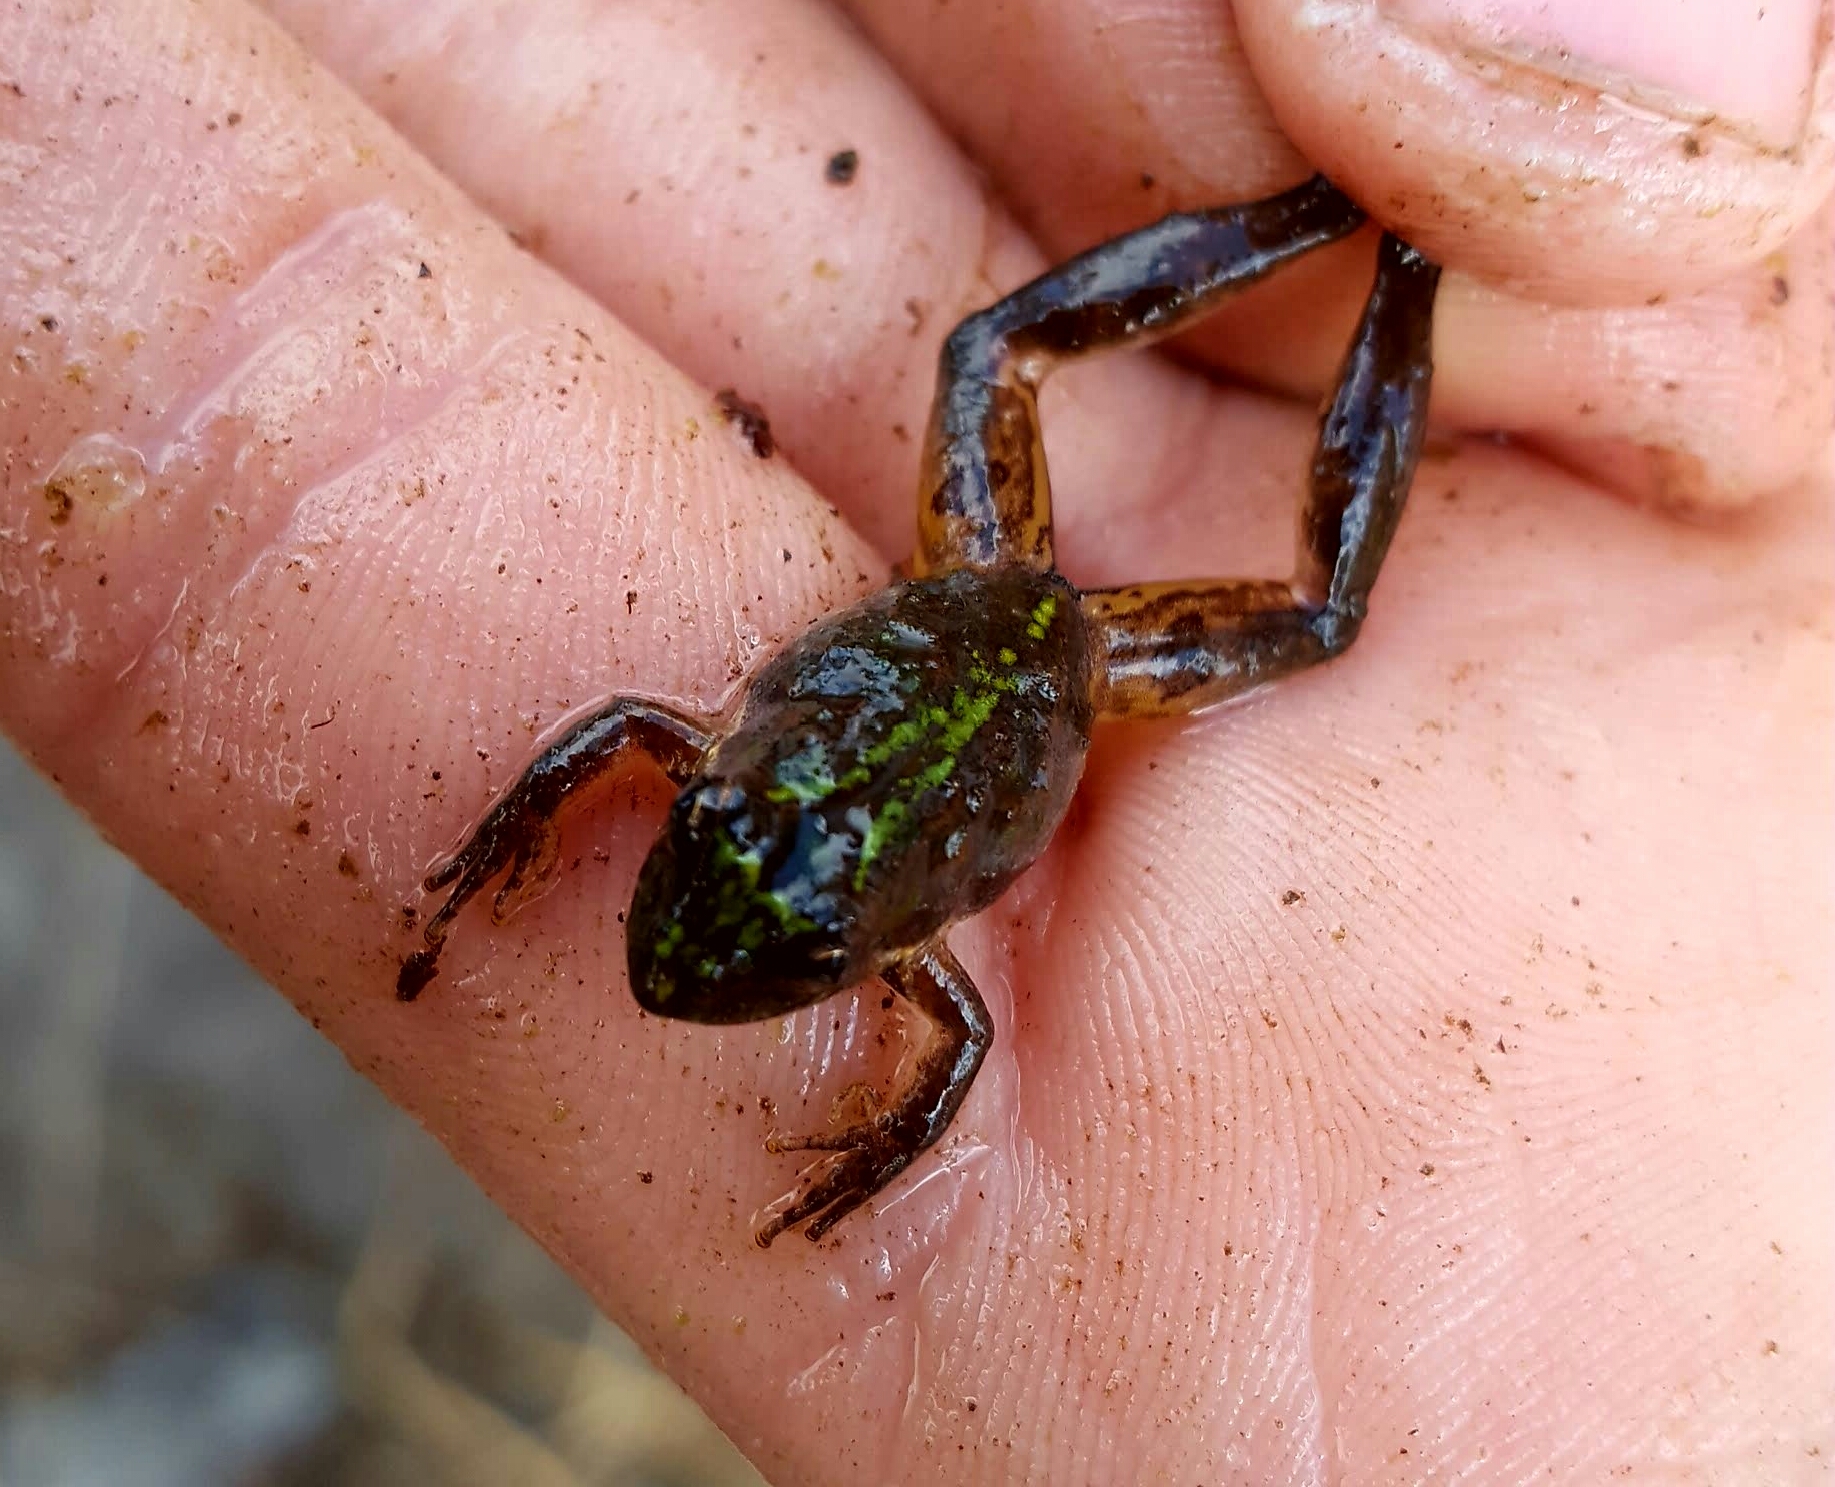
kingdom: Animalia
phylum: Chordata
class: Amphibia
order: Anura
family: Hylidae
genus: Acris
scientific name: Acris gryllus
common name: Southern cricket frog
